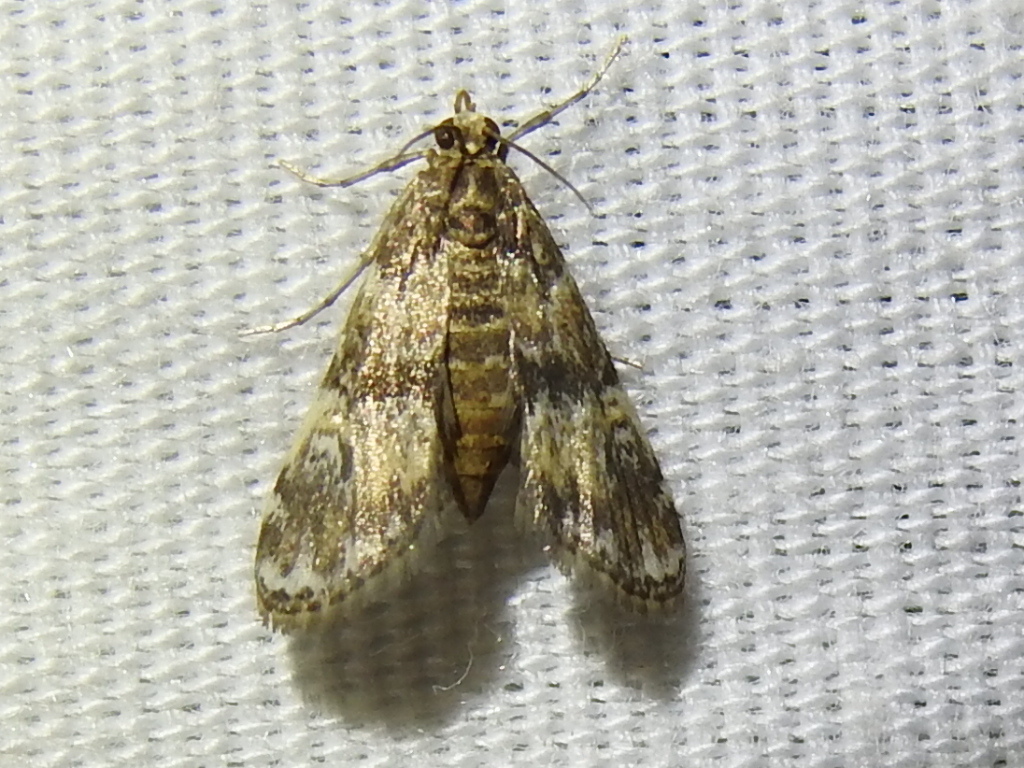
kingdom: Animalia
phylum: Arthropoda
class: Insecta
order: Lepidoptera
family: Crambidae
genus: Elophila
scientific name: Elophila obliteralis
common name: Waterlily leafcutter moth
